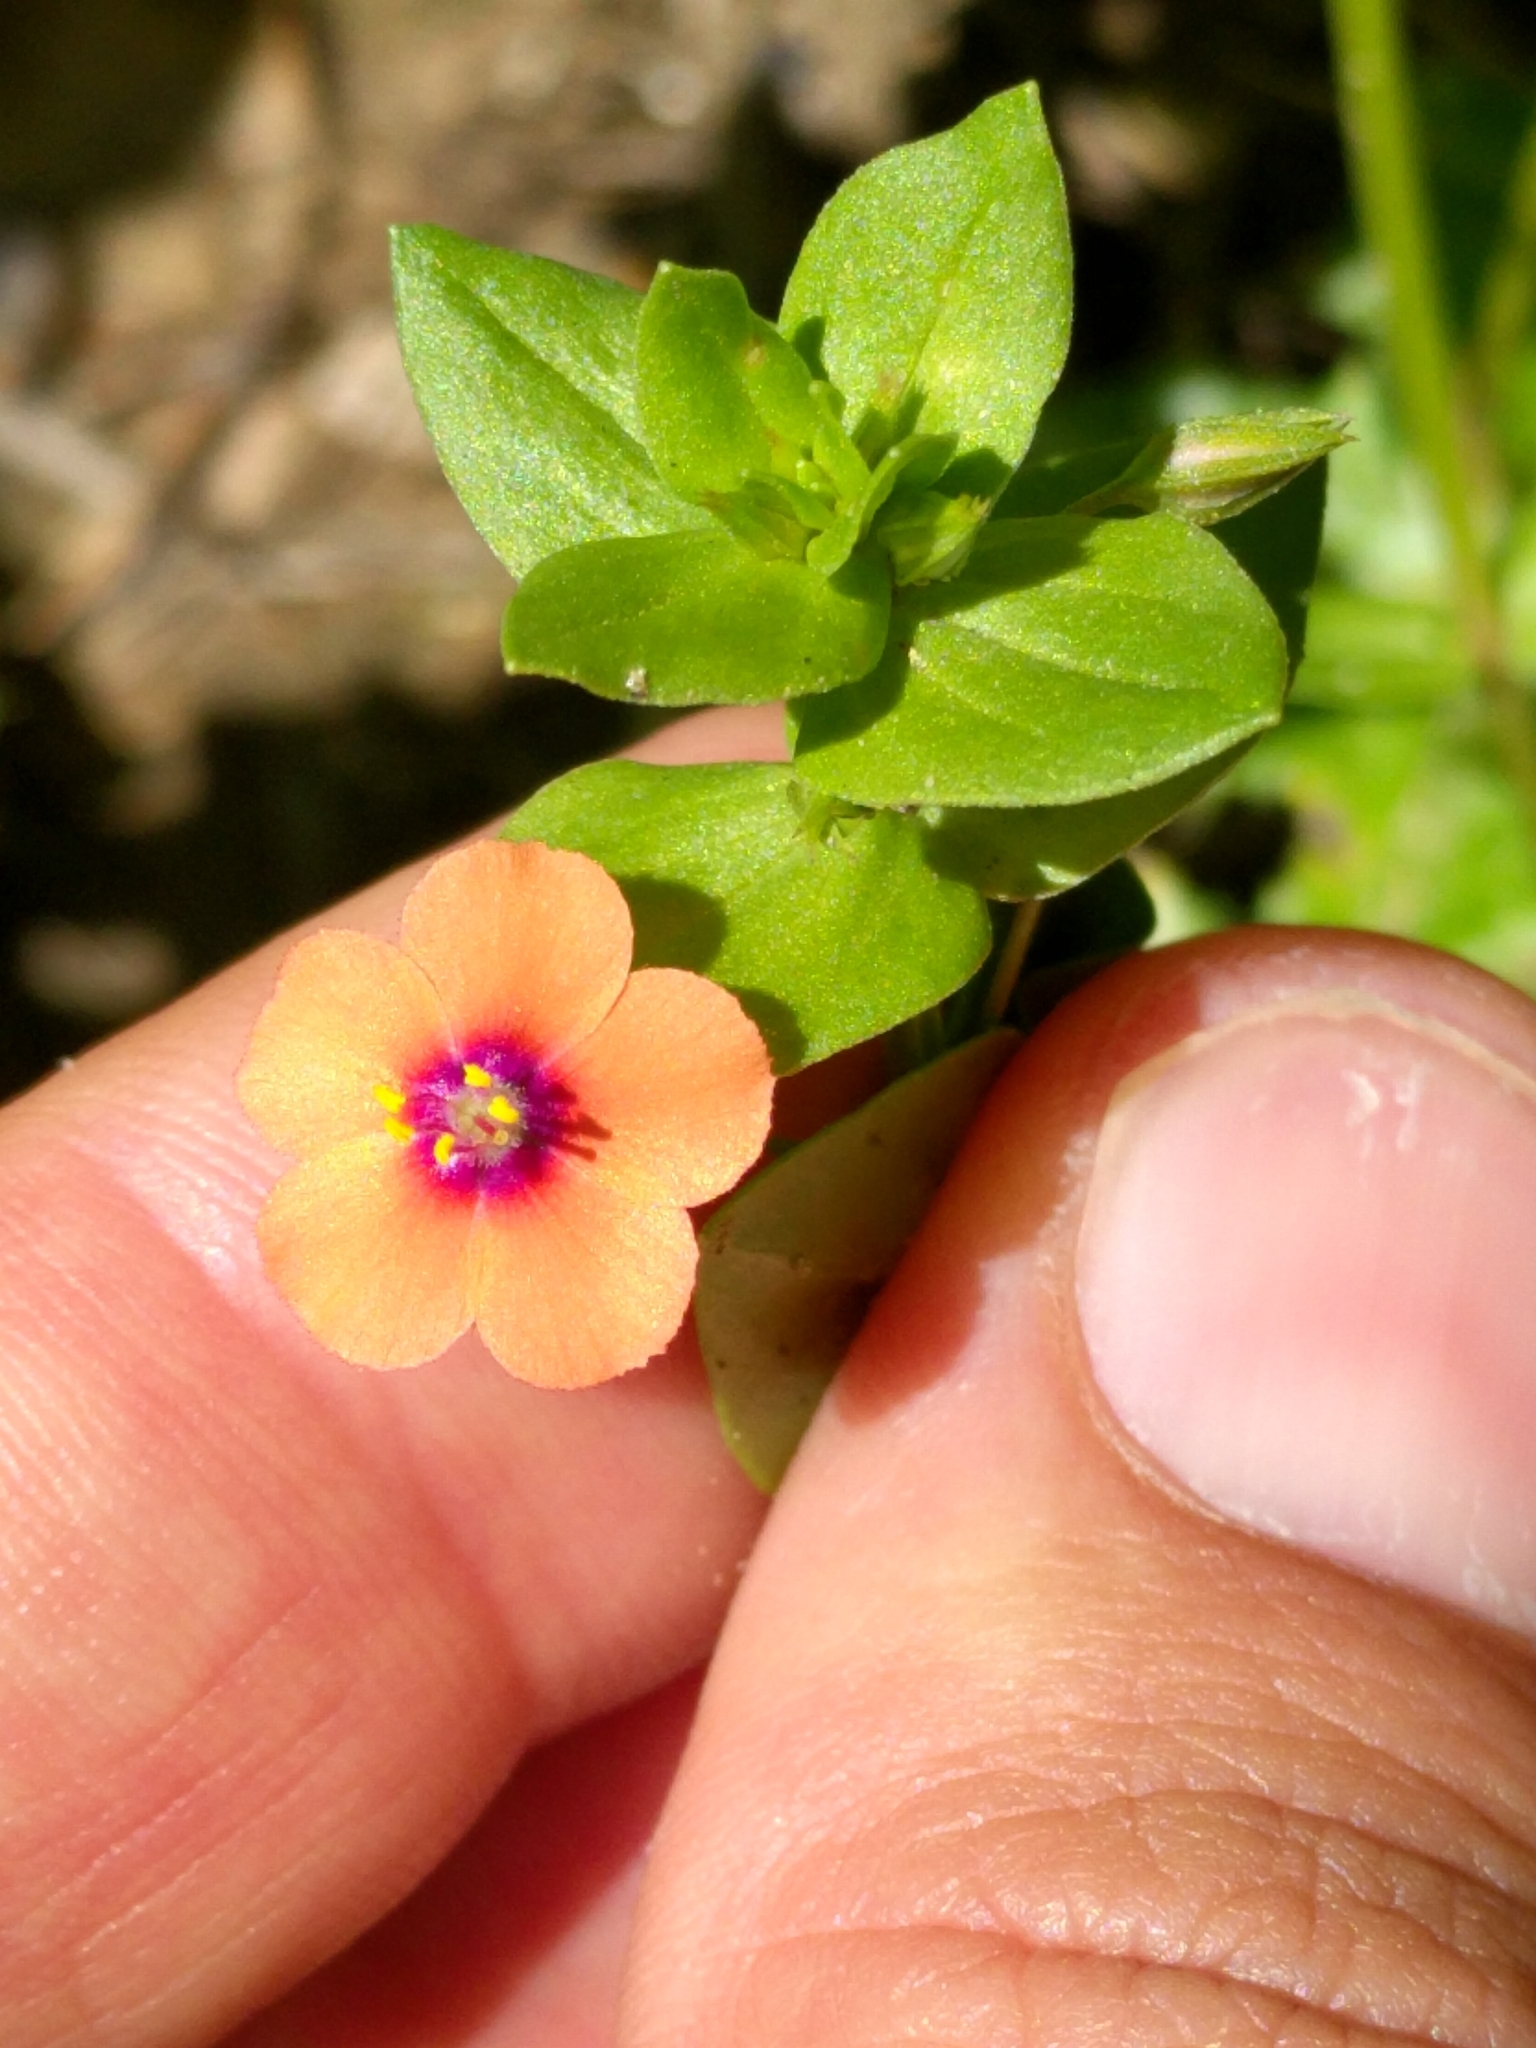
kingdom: Plantae
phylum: Tracheophyta
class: Magnoliopsida
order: Ericales
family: Primulaceae
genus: Lysimachia
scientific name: Lysimachia arvensis
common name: Scarlet pimpernel
